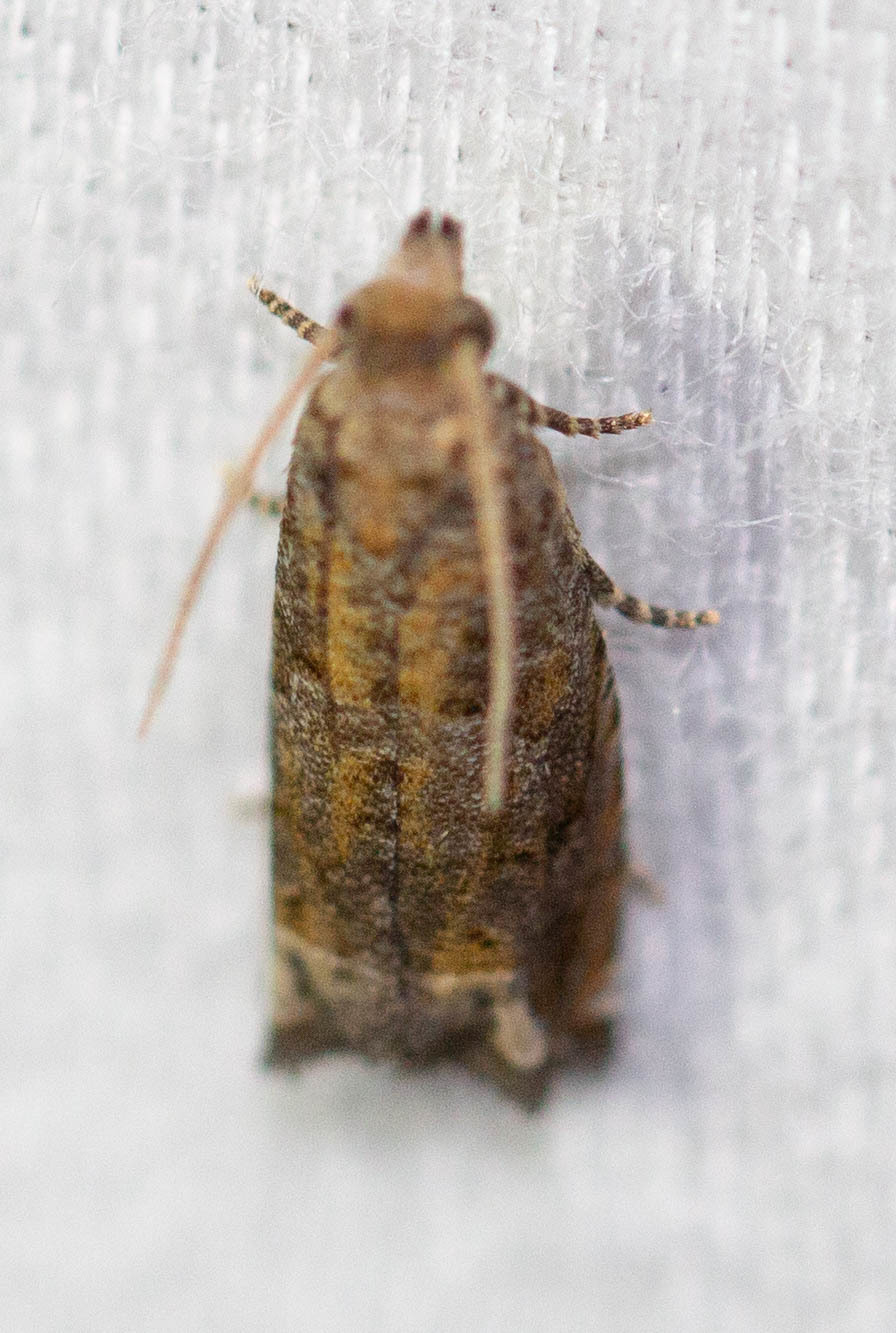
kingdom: Animalia
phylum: Arthropoda
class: Insecta
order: Lepidoptera
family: Tortricidae
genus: Epiblema
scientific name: Epiblema abruptana
